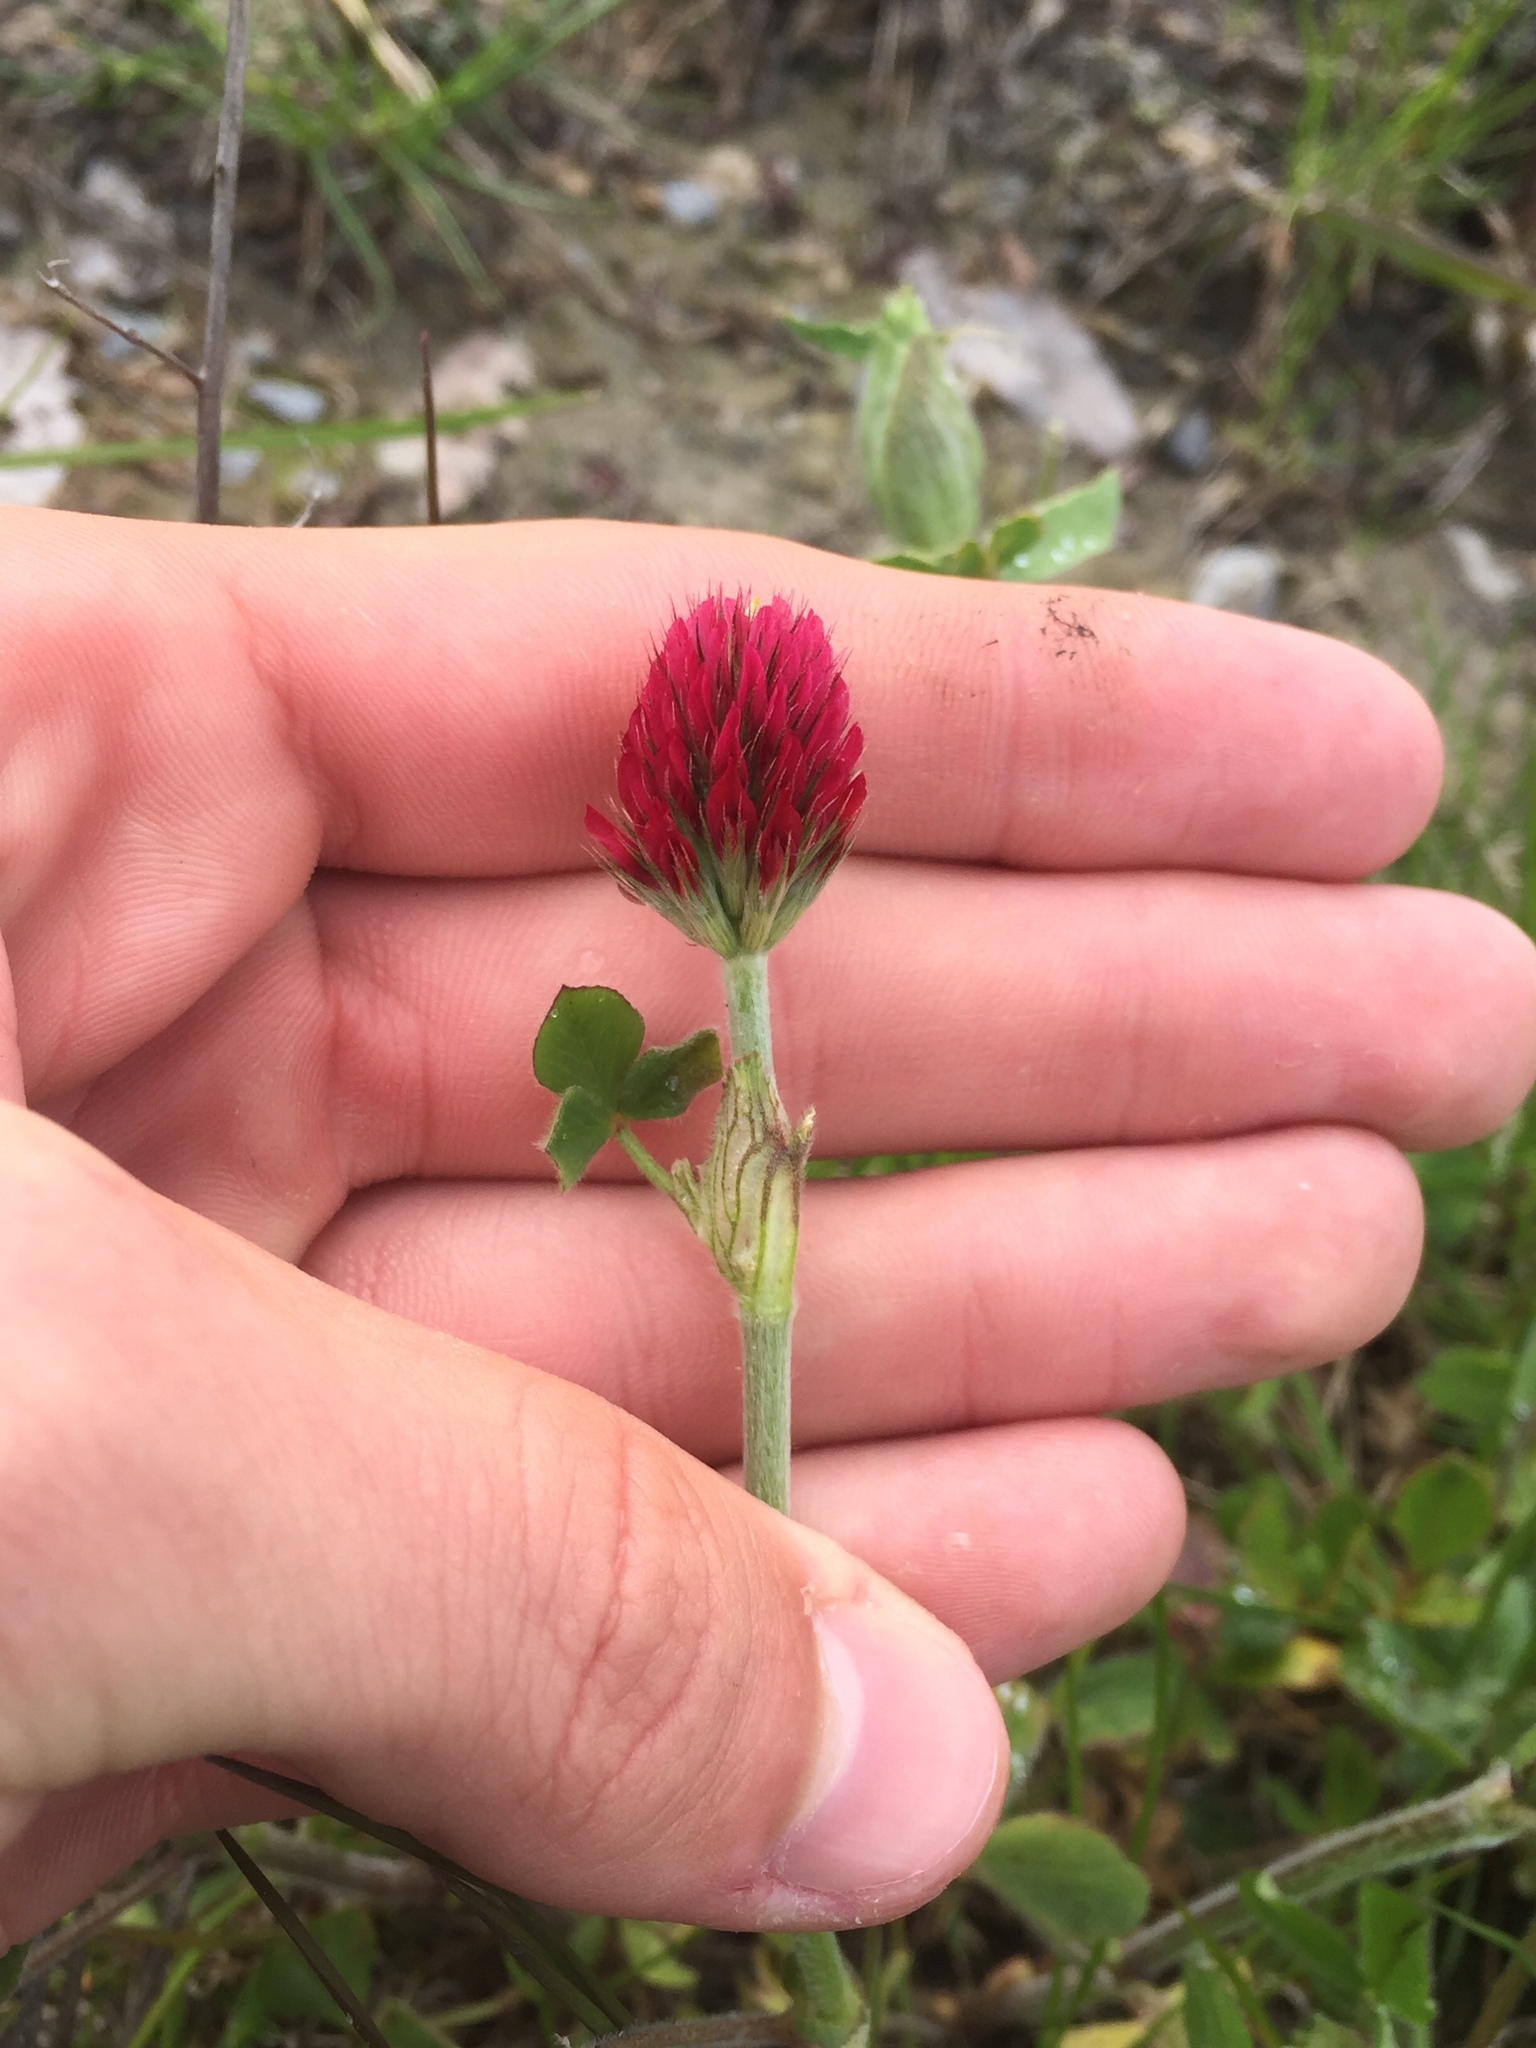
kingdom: Plantae
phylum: Tracheophyta
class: Magnoliopsida
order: Fabales
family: Fabaceae
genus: Trifolium
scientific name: Trifolium incarnatum
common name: Crimson clover
